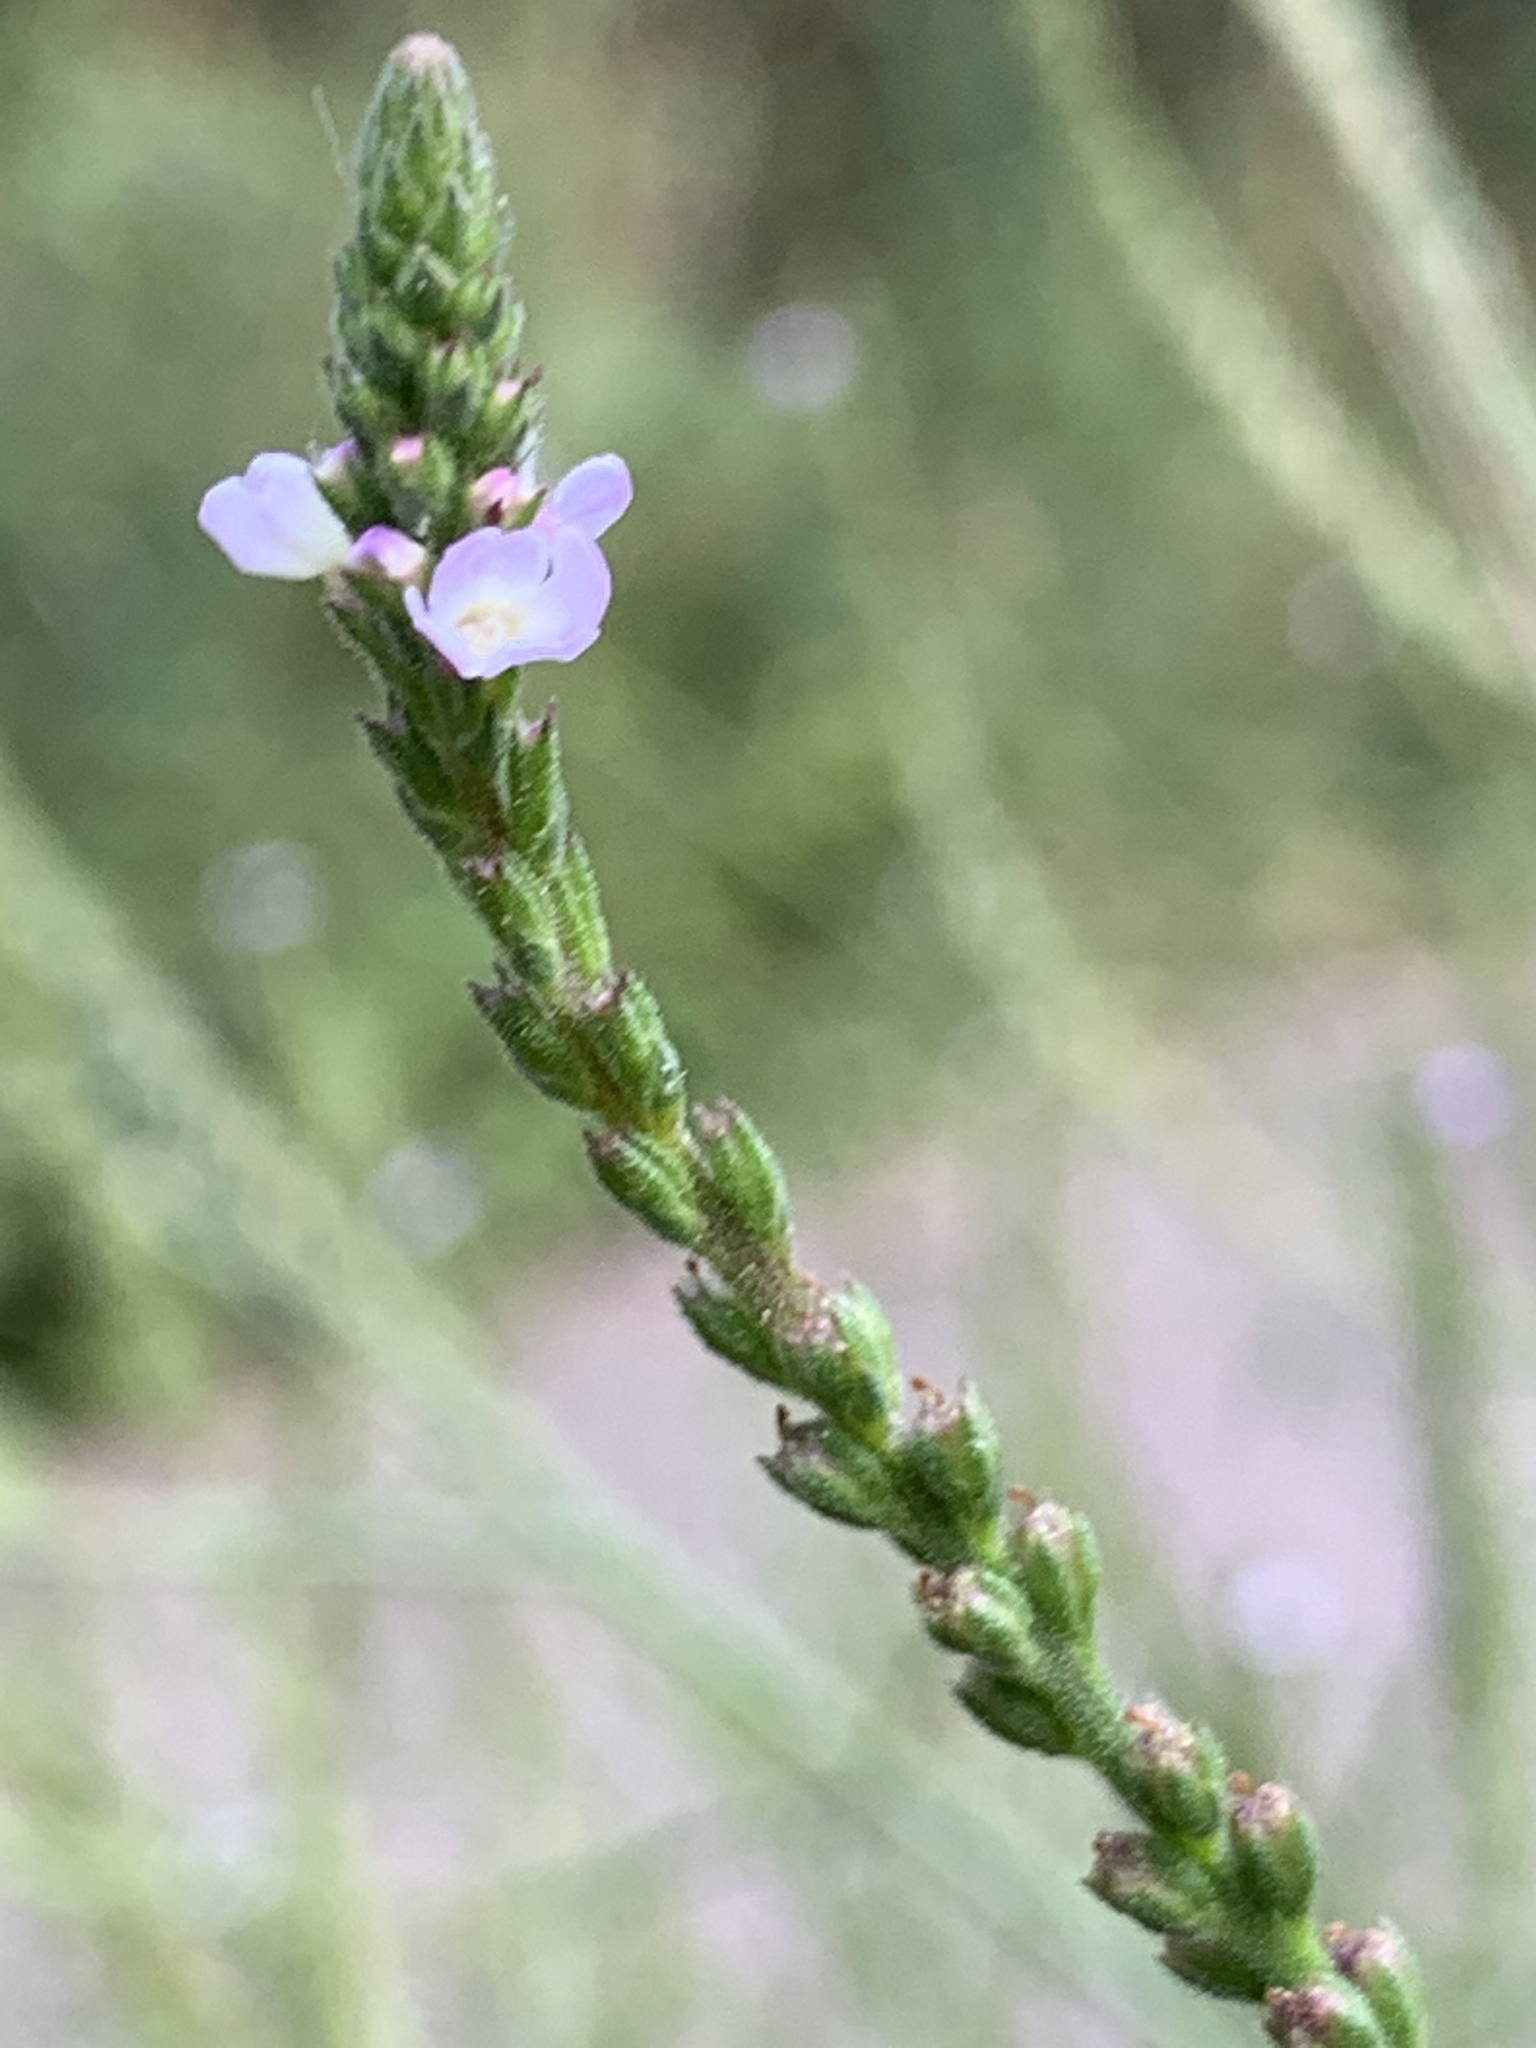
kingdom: Plantae
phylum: Tracheophyta
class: Magnoliopsida
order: Lamiales
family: Verbenaceae
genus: Verbena
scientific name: Verbena officinalis
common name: Vervain
